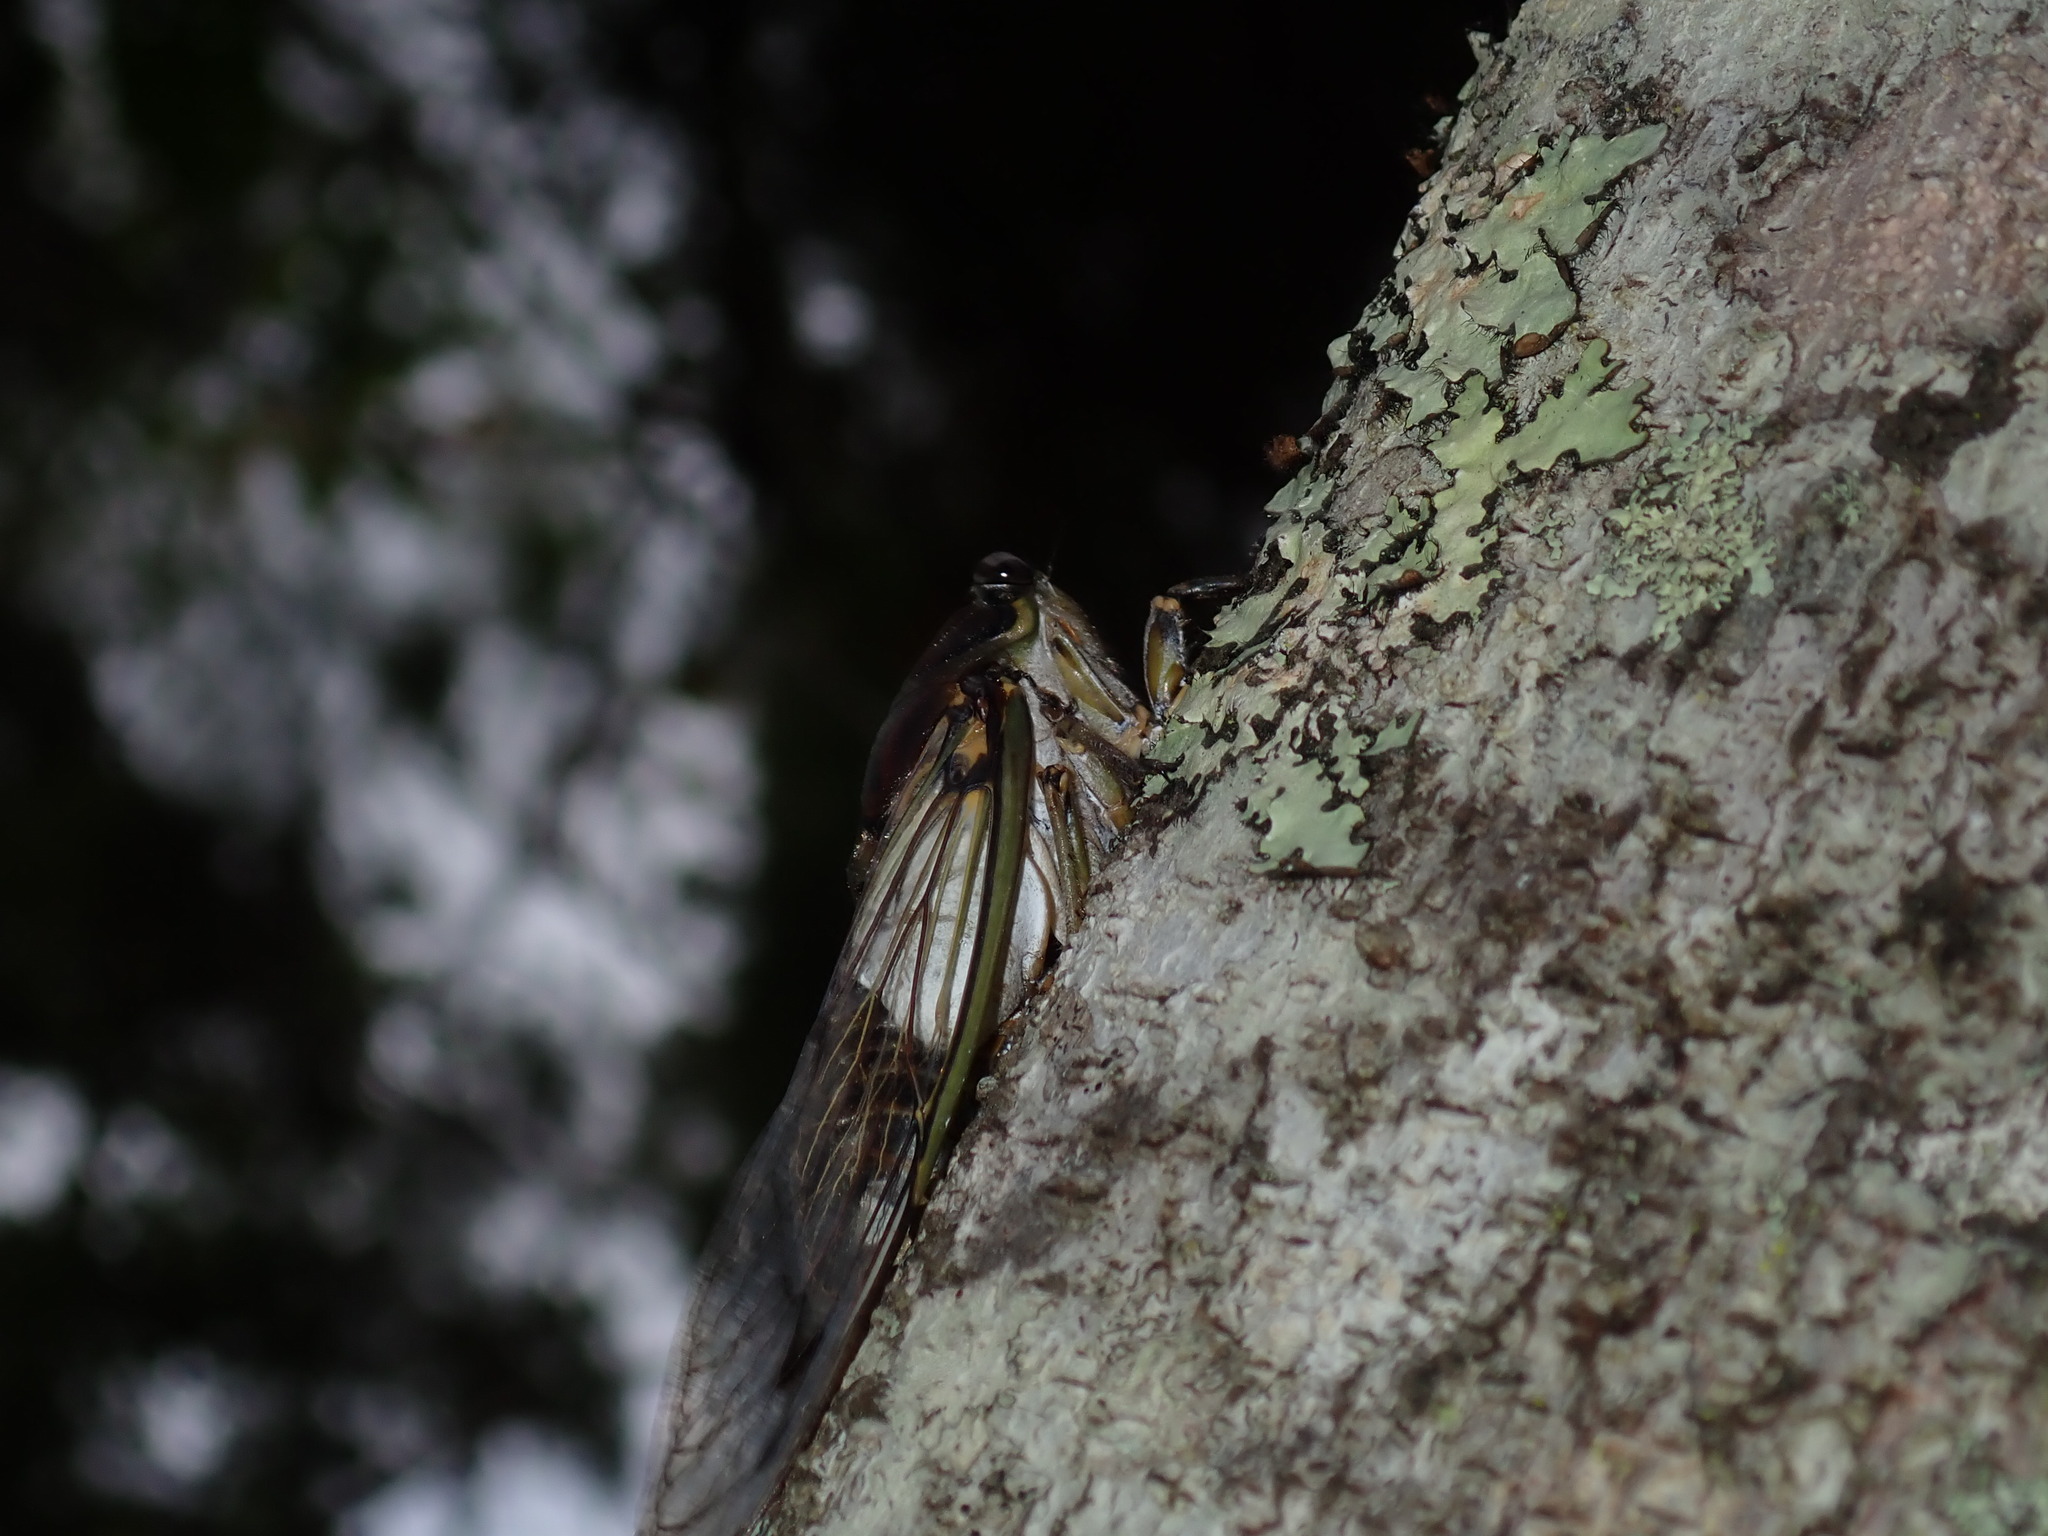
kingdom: Animalia
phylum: Arthropoda
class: Insecta
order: Hemiptera
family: Cicadidae
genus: Arunta
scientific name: Arunta perulata
